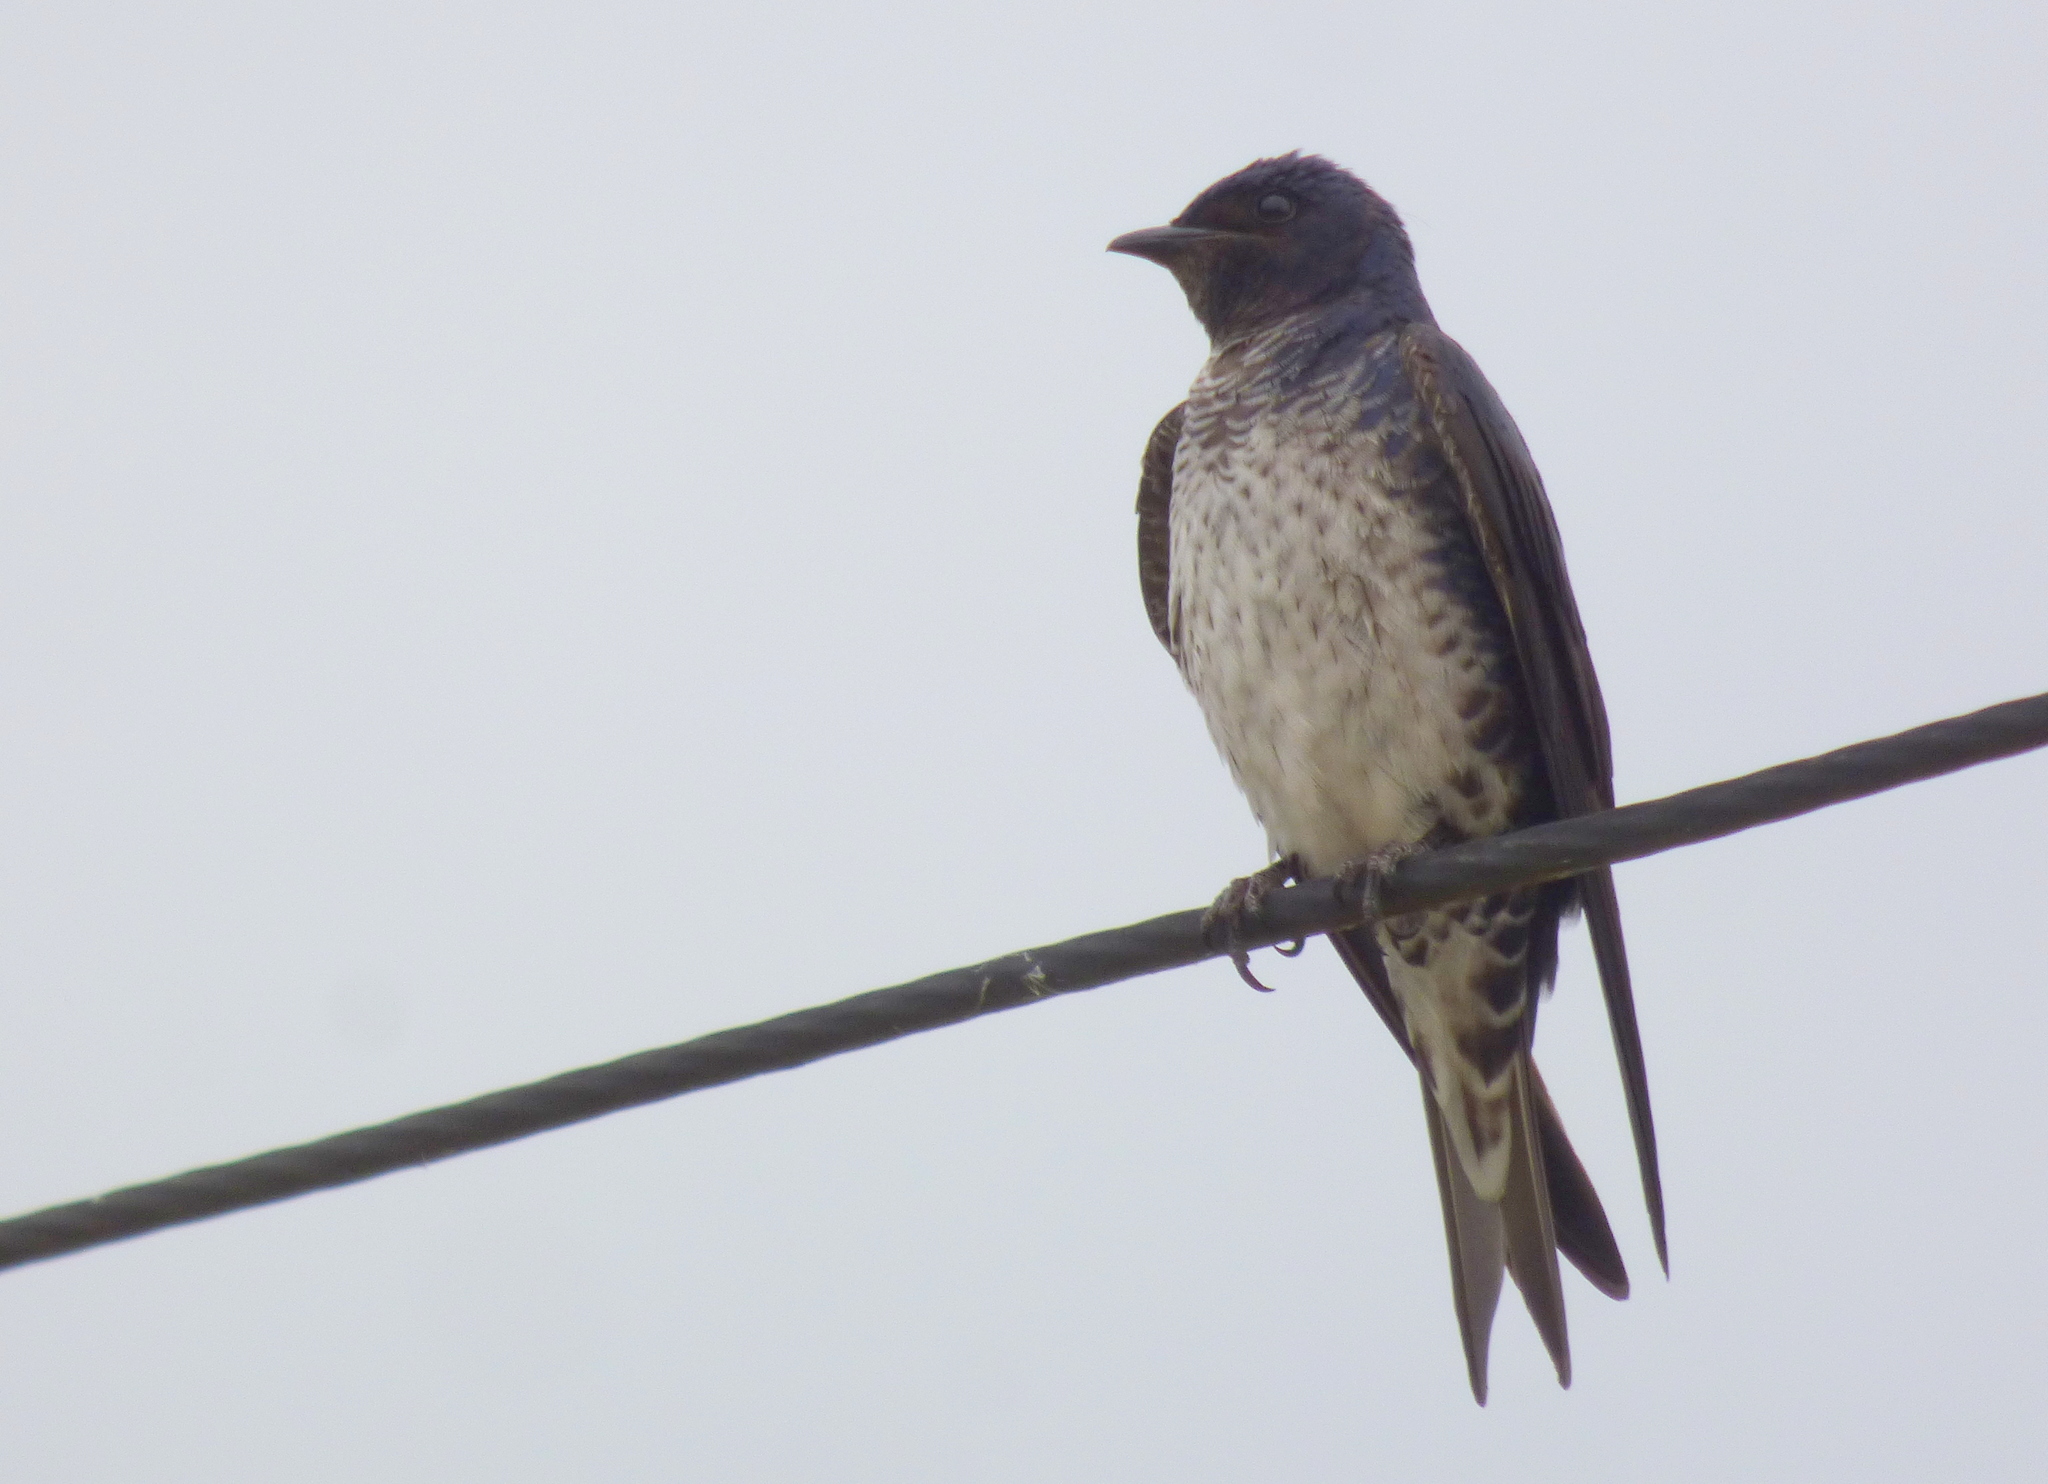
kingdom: Animalia
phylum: Chordata
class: Aves
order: Passeriformes
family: Hirundinidae
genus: Progne
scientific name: Progne elegans
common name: Southern martin
